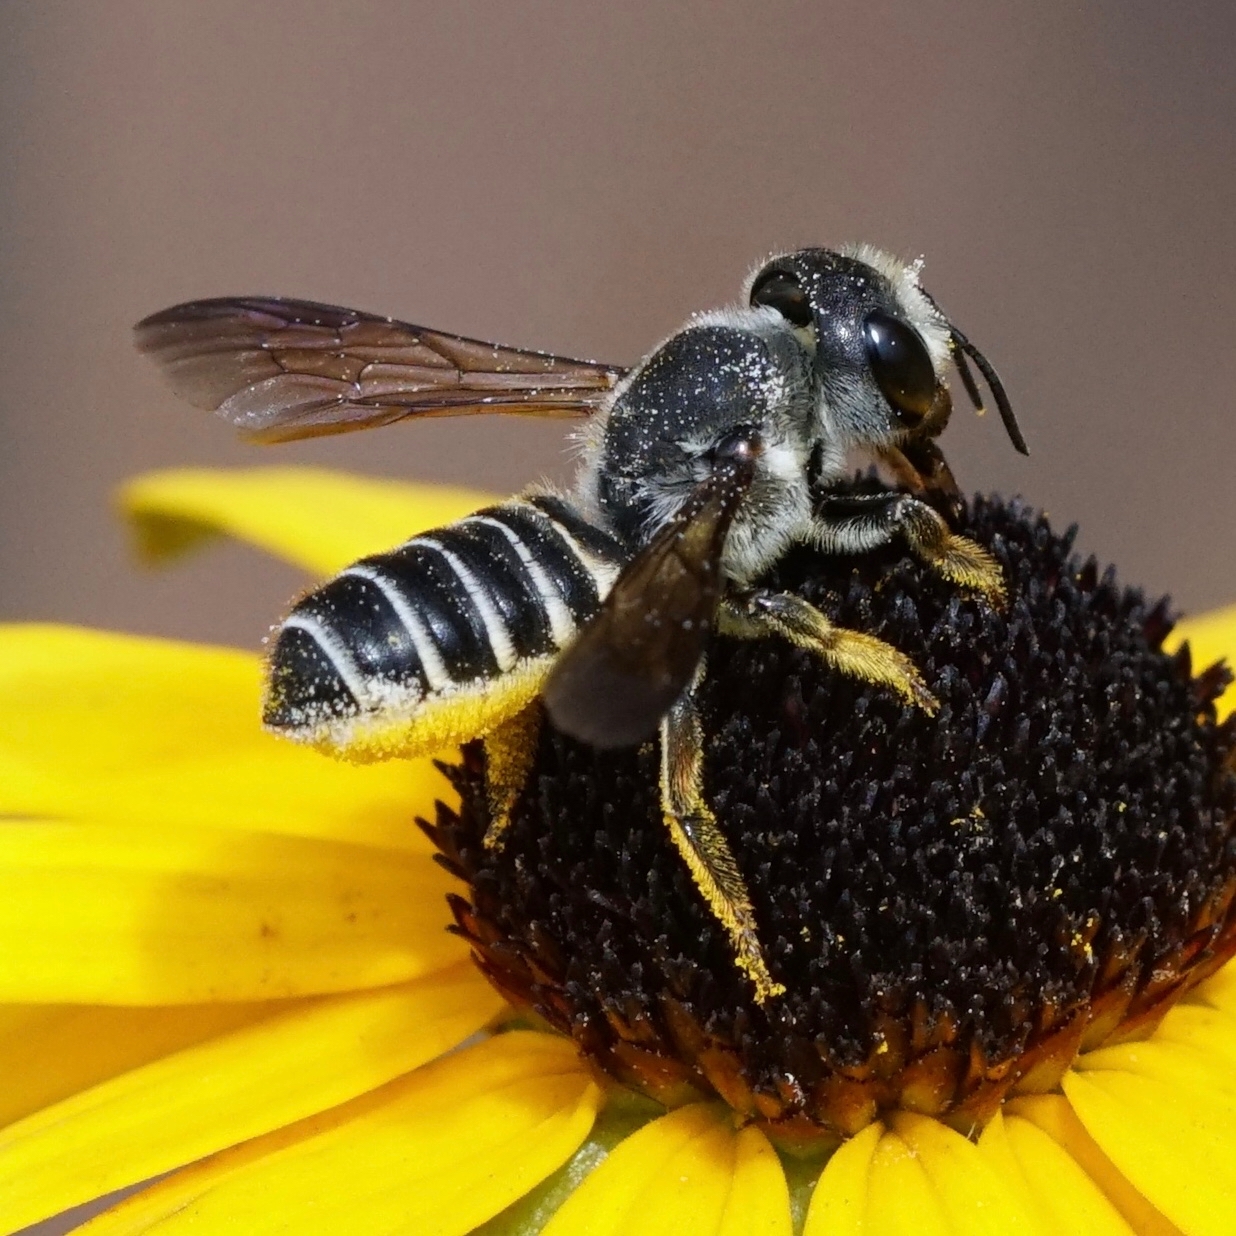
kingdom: Animalia
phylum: Arthropoda
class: Insecta
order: Hymenoptera
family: Megachilidae
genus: Megachile
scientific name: Megachile frugalis
